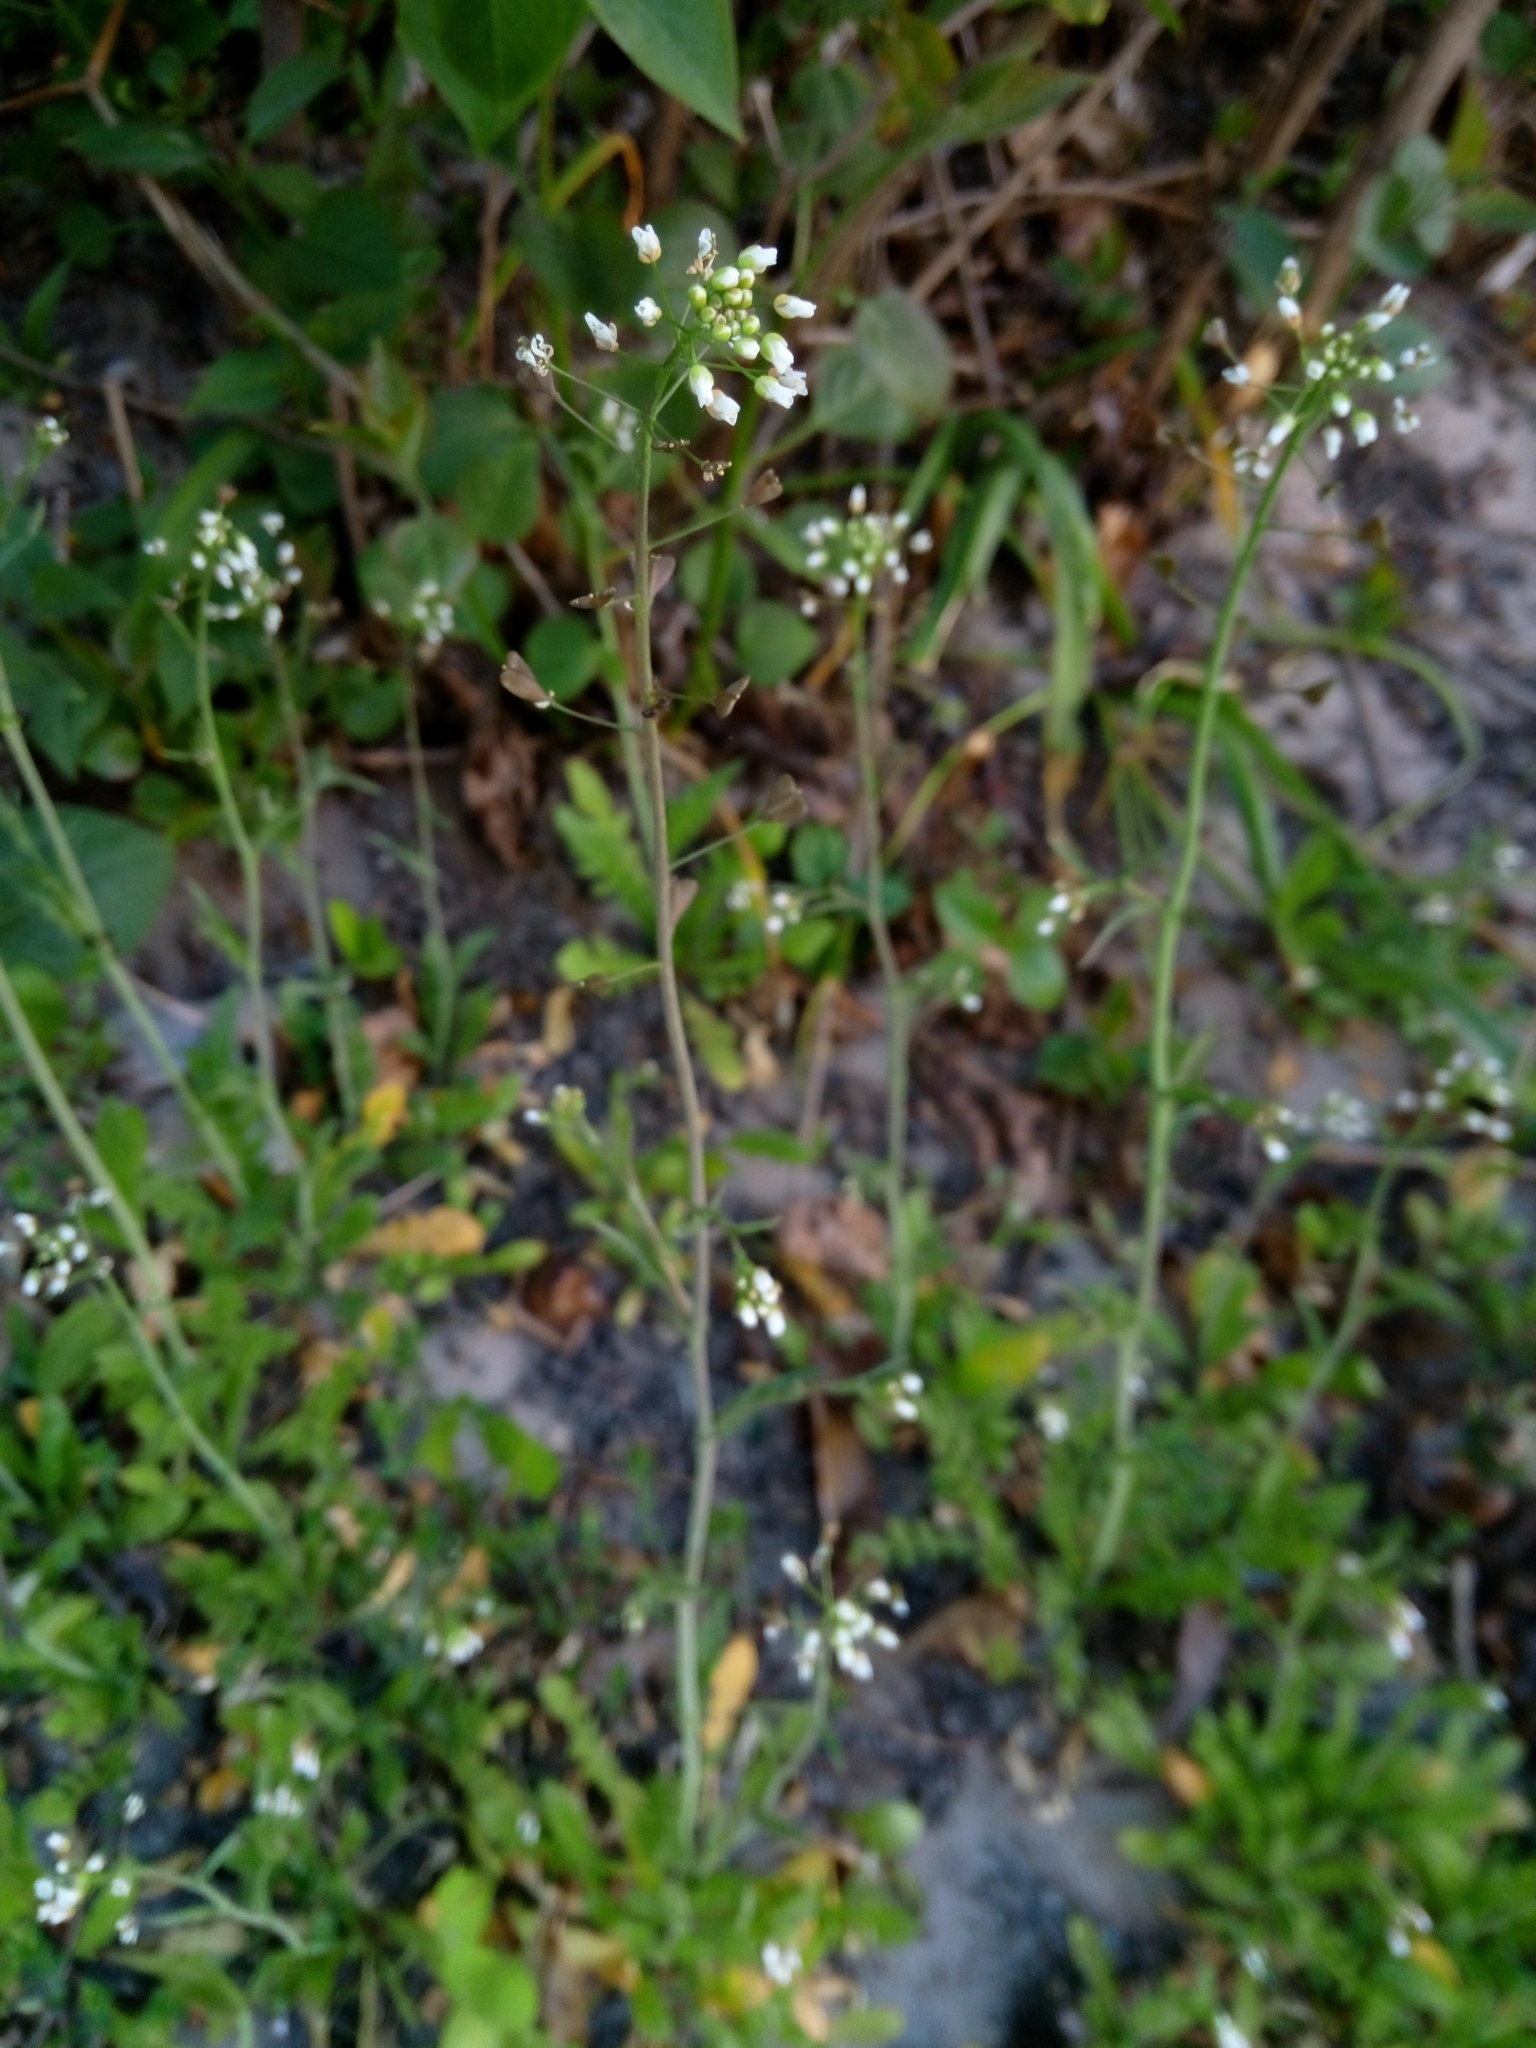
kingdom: Plantae
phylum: Tracheophyta
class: Magnoliopsida
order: Brassicales
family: Brassicaceae
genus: Capsella
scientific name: Capsella bursa-pastoris
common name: Shepherd's purse
